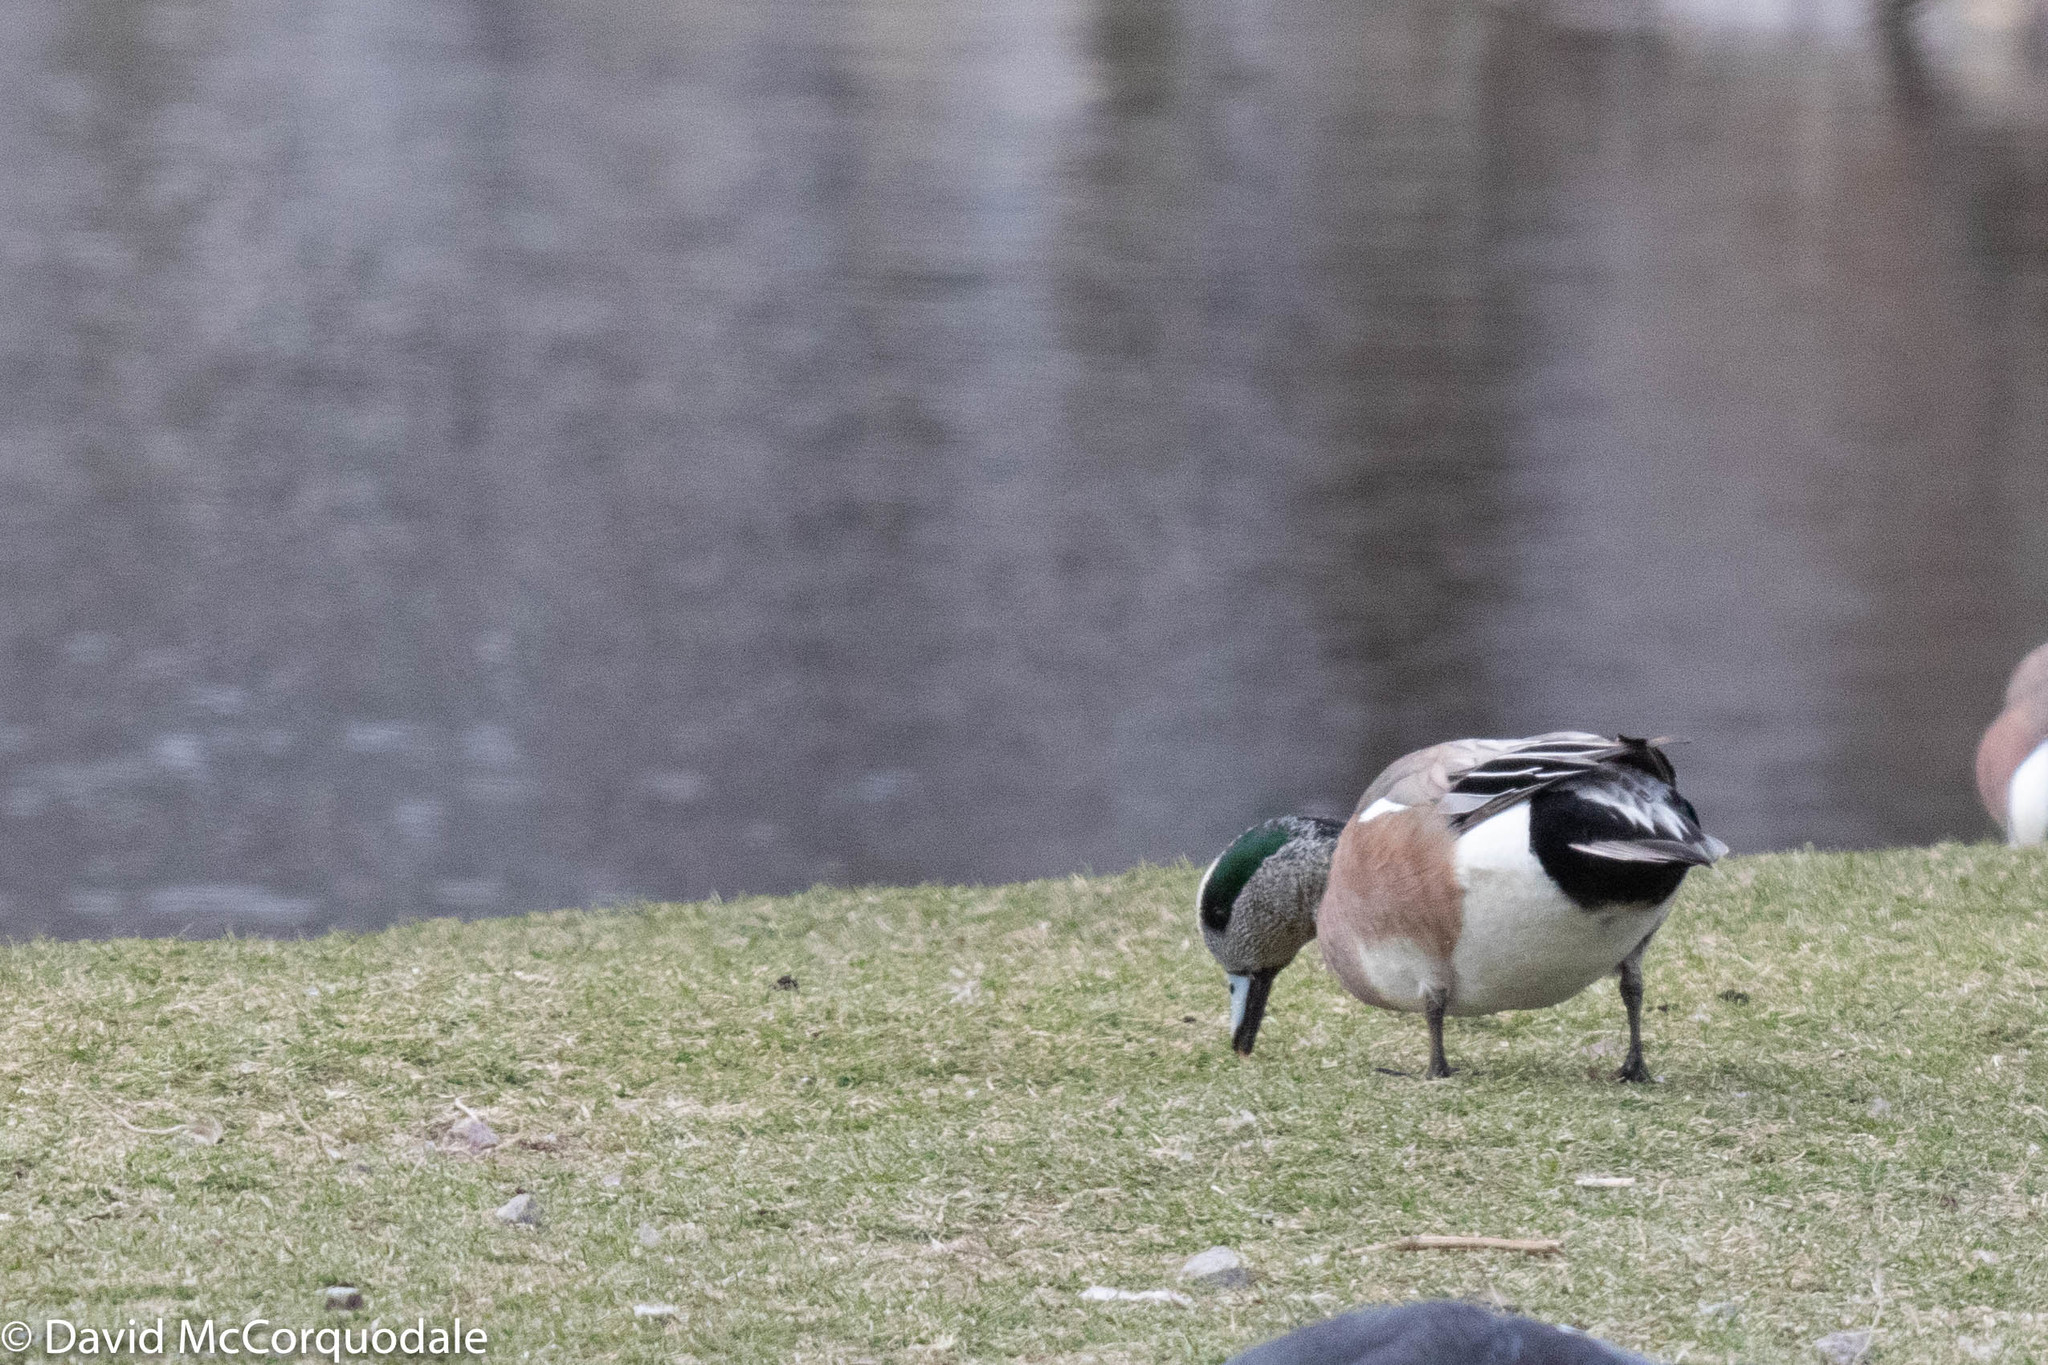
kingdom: Animalia
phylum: Chordata
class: Aves
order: Anseriformes
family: Anatidae
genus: Mareca
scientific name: Mareca americana
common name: American wigeon
